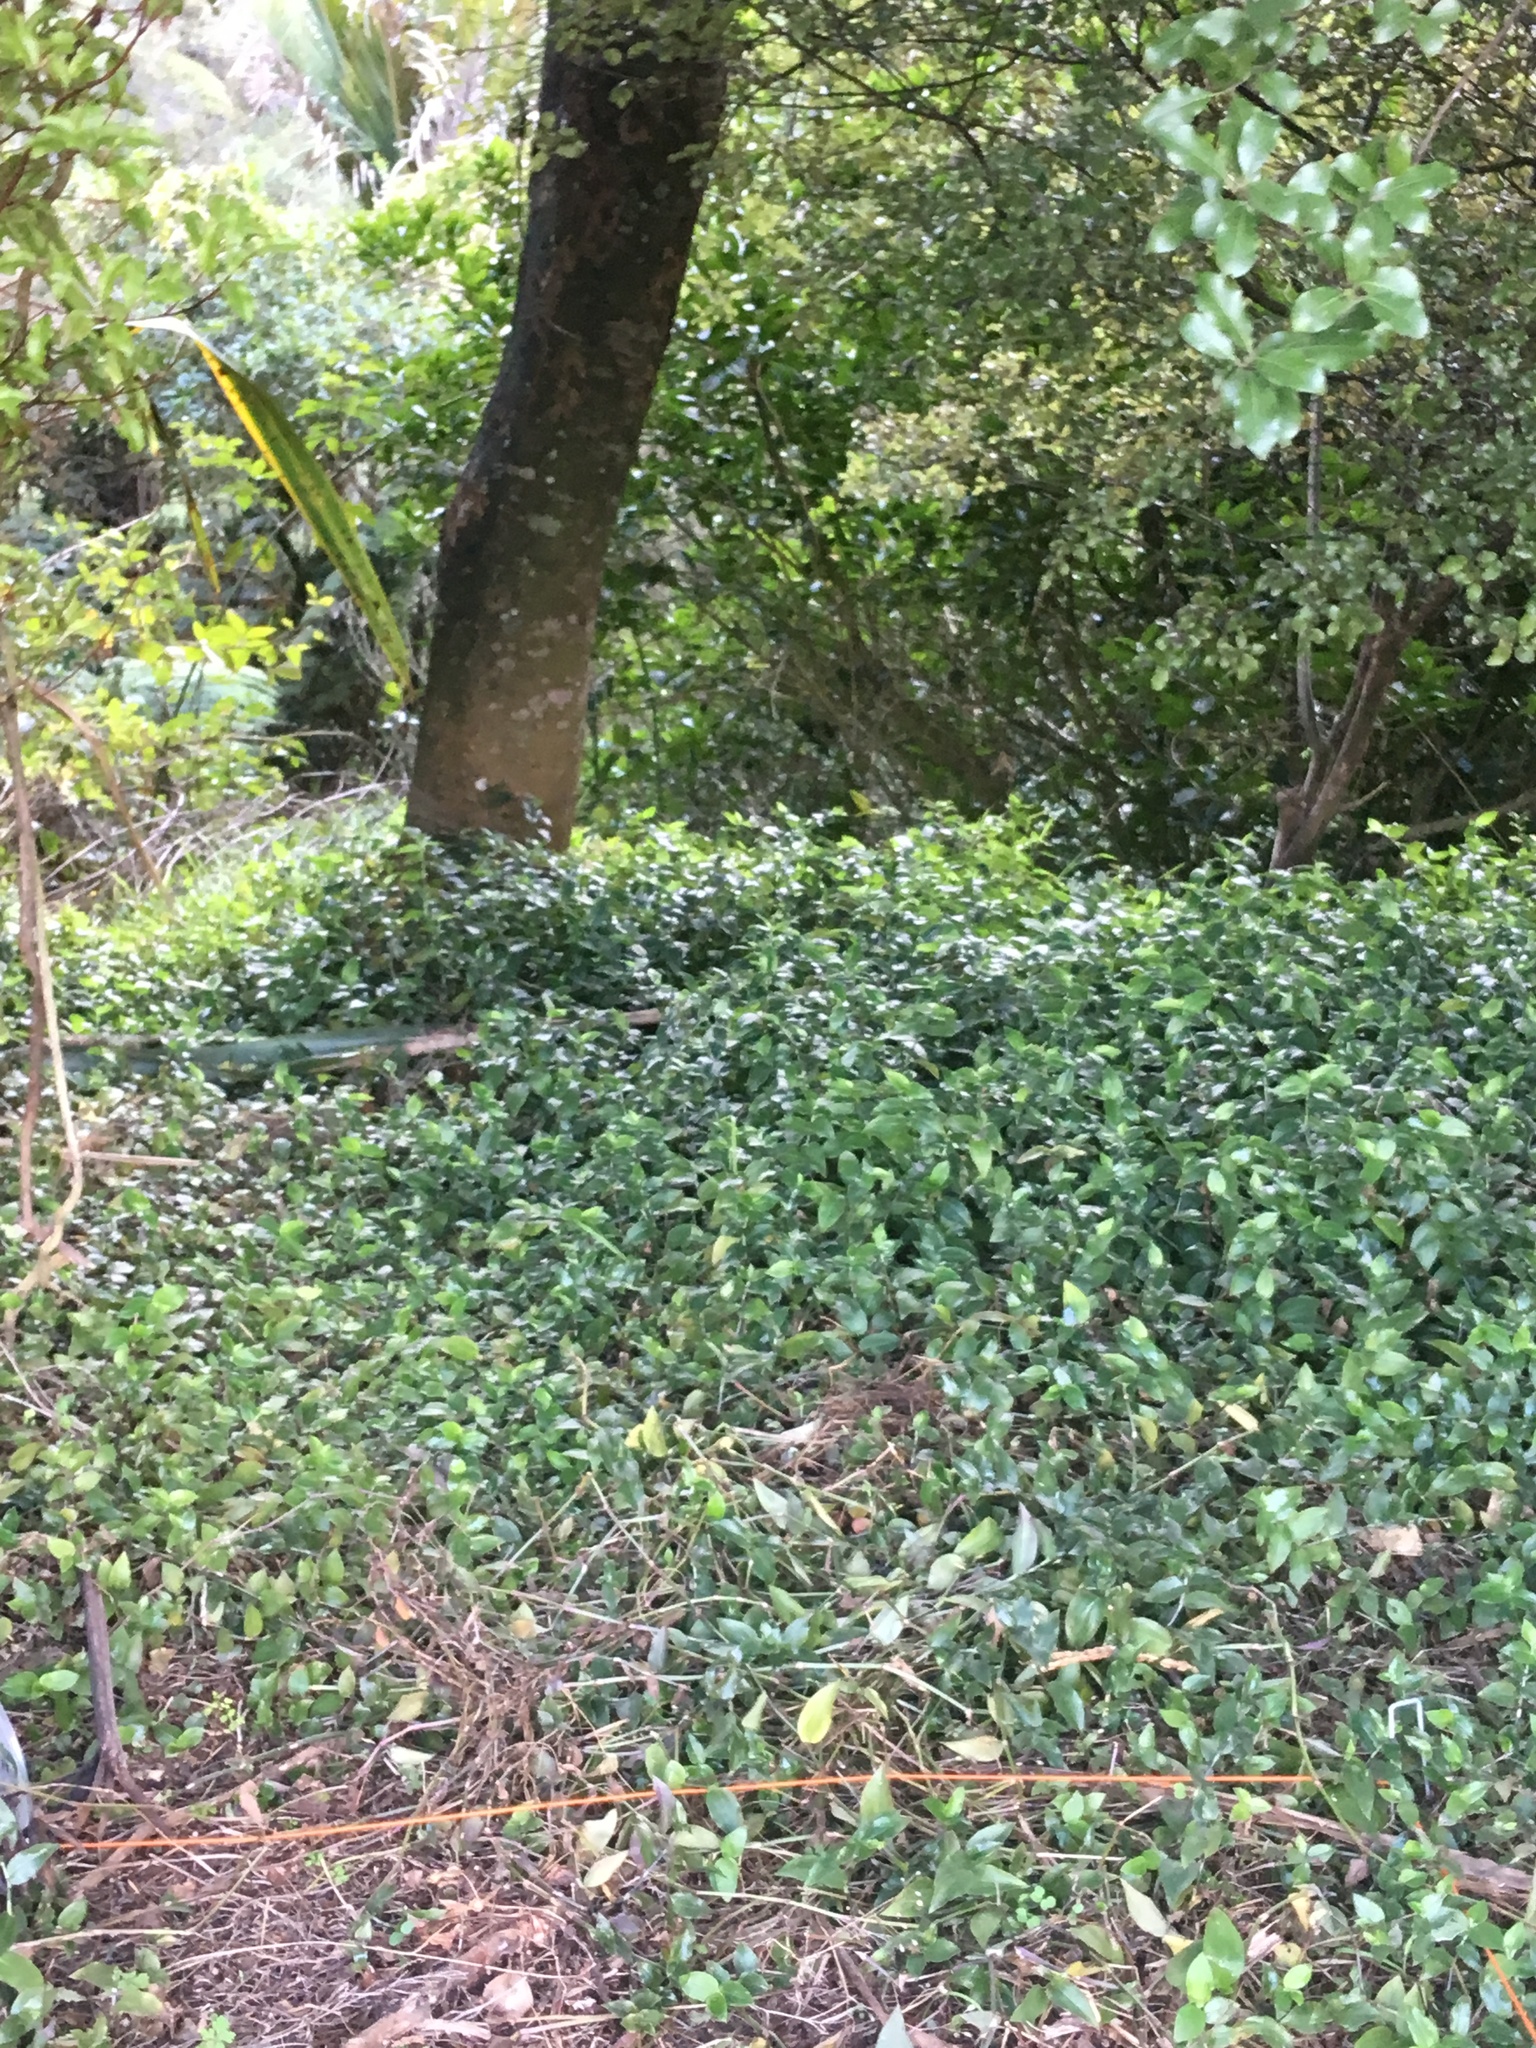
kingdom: Plantae
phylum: Tracheophyta
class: Liliopsida
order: Commelinales
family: Commelinaceae
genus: Tradescantia
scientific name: Tradescantia fluminensis
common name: Wandering-jew
